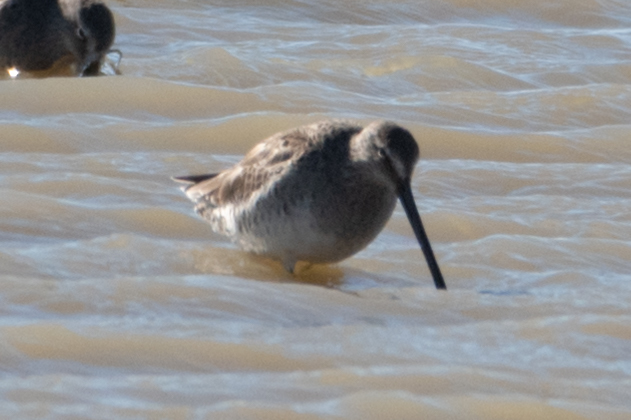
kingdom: Animalia
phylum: Chordata
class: Aves
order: Charadriiformes
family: Scolopacidae
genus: Limnodromus
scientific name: Limnodromus scolopaceus
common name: Long-billed dowitcher
